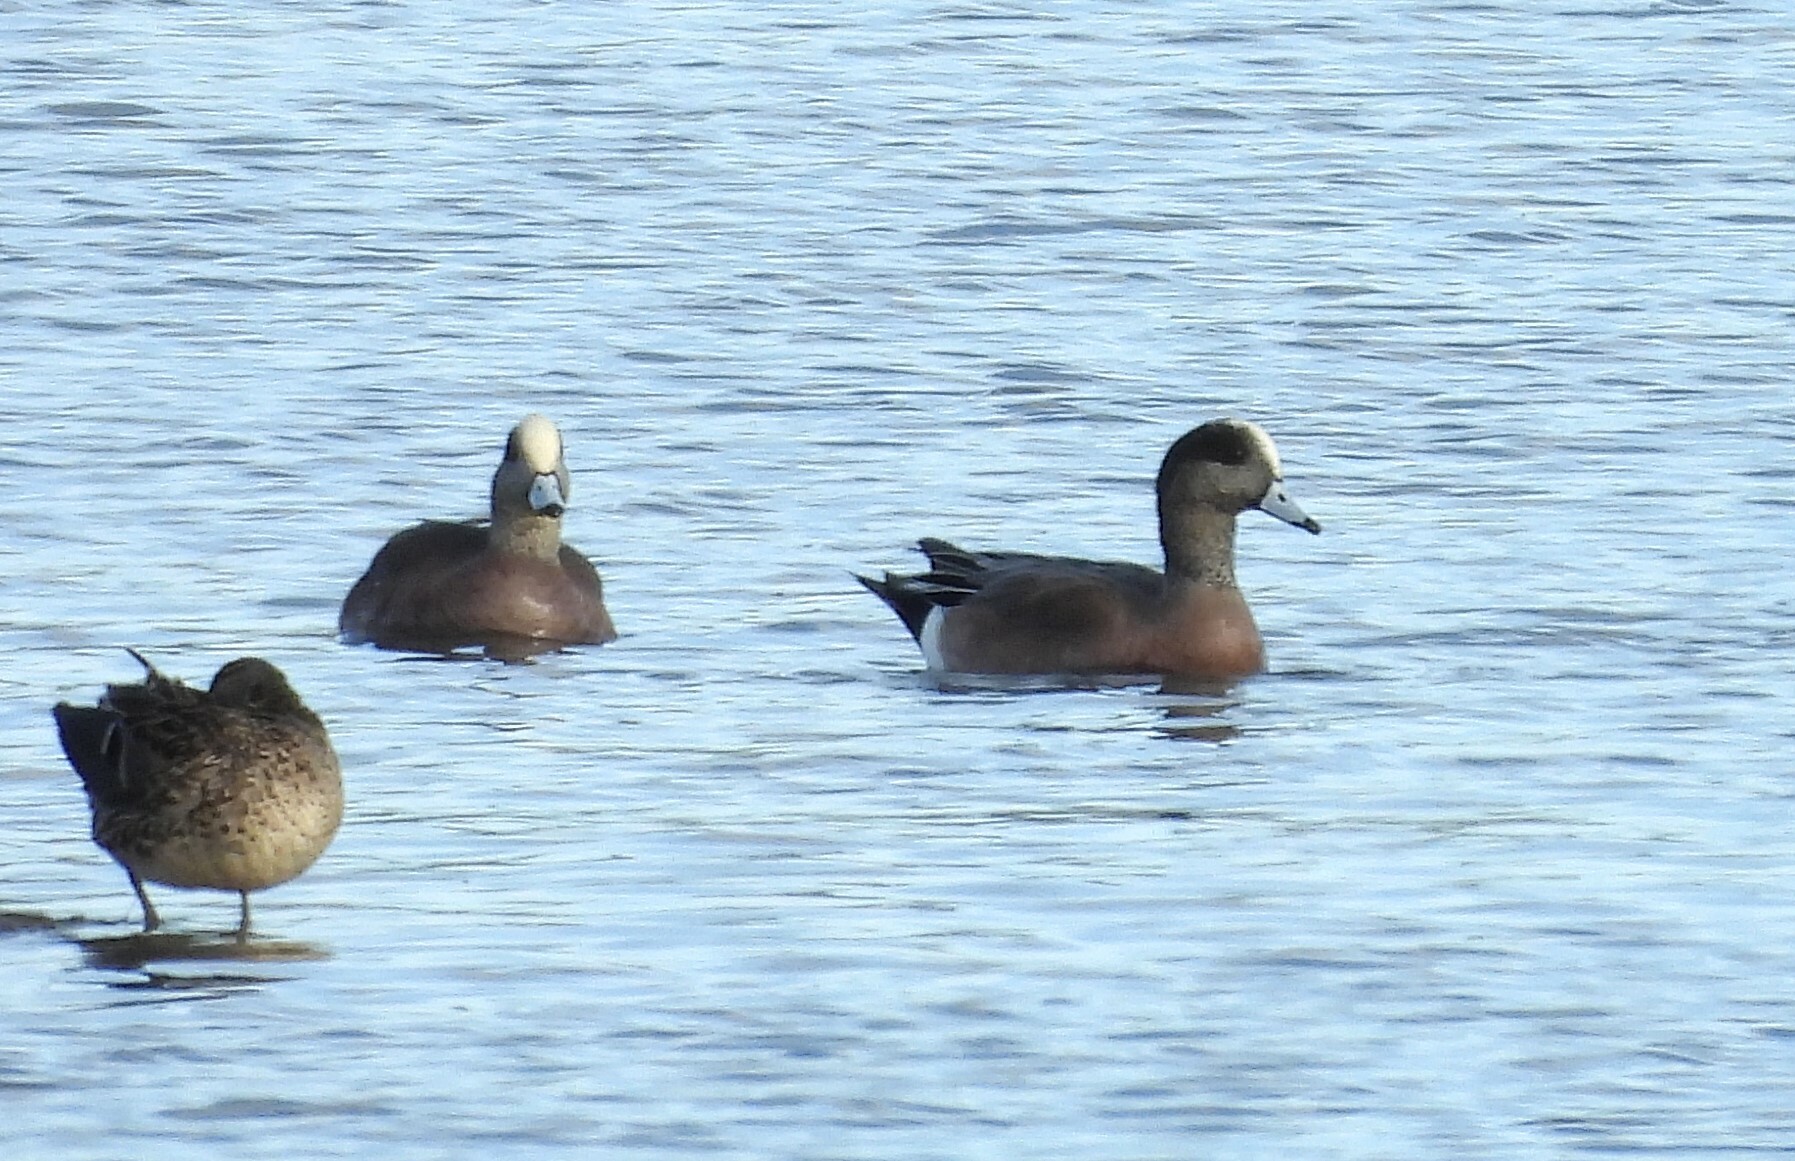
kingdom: Animalia
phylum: Chordata
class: Aves
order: Anseriformes
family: Anatidae
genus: Mareca
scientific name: Mareca americana
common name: American wigeon
